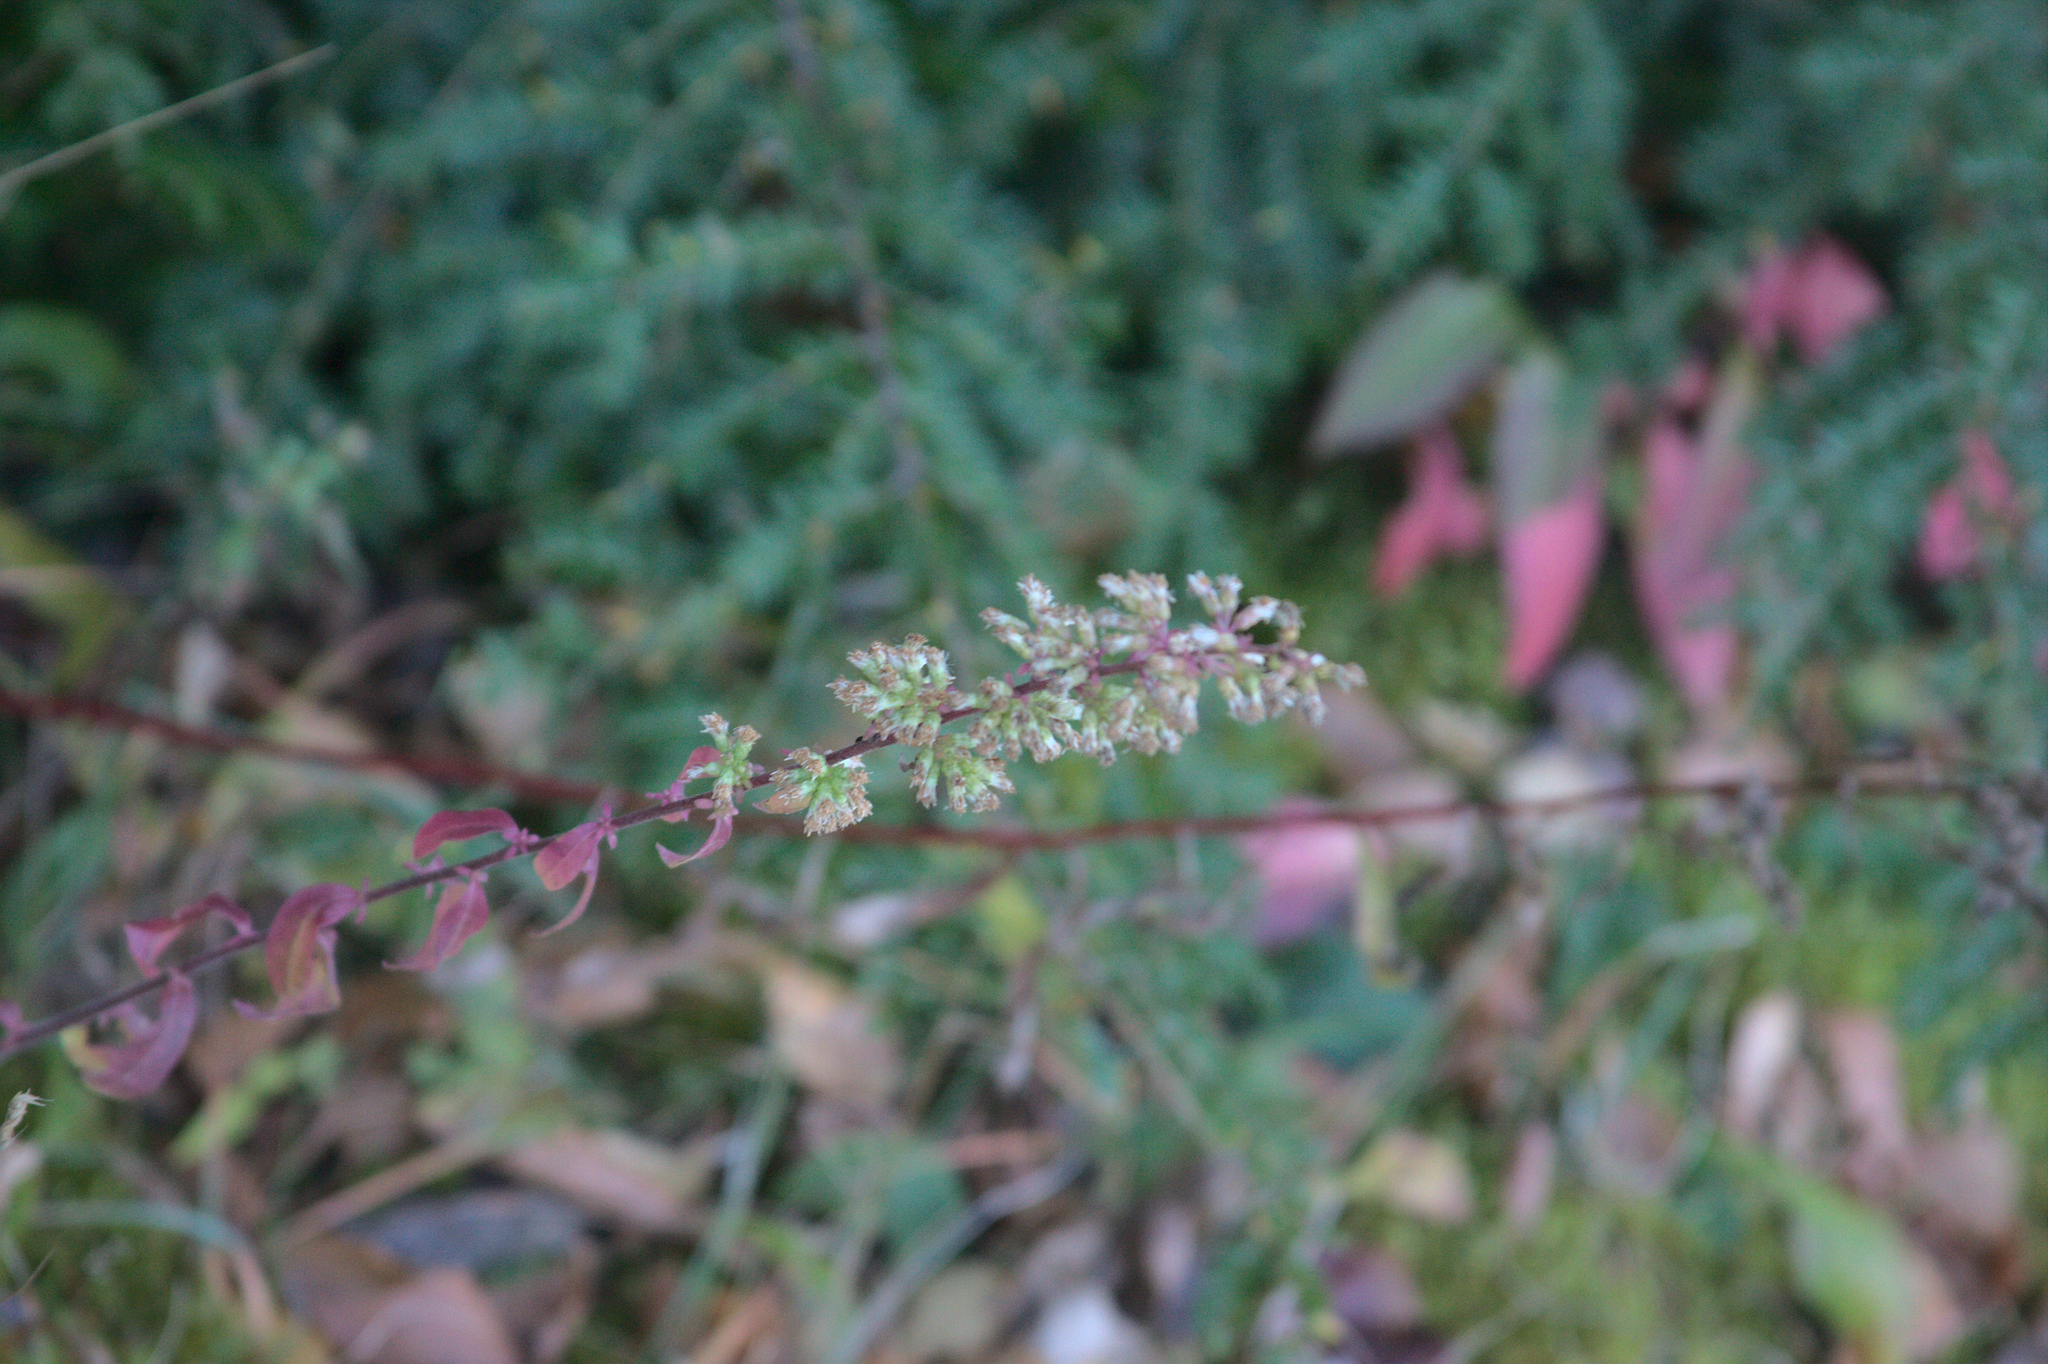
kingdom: Plantae
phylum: Tracheophyta
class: Magnoliopsida
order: Asterales
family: Asteraceae
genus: Solidago
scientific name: Solidago bicolor
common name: Silverrod
